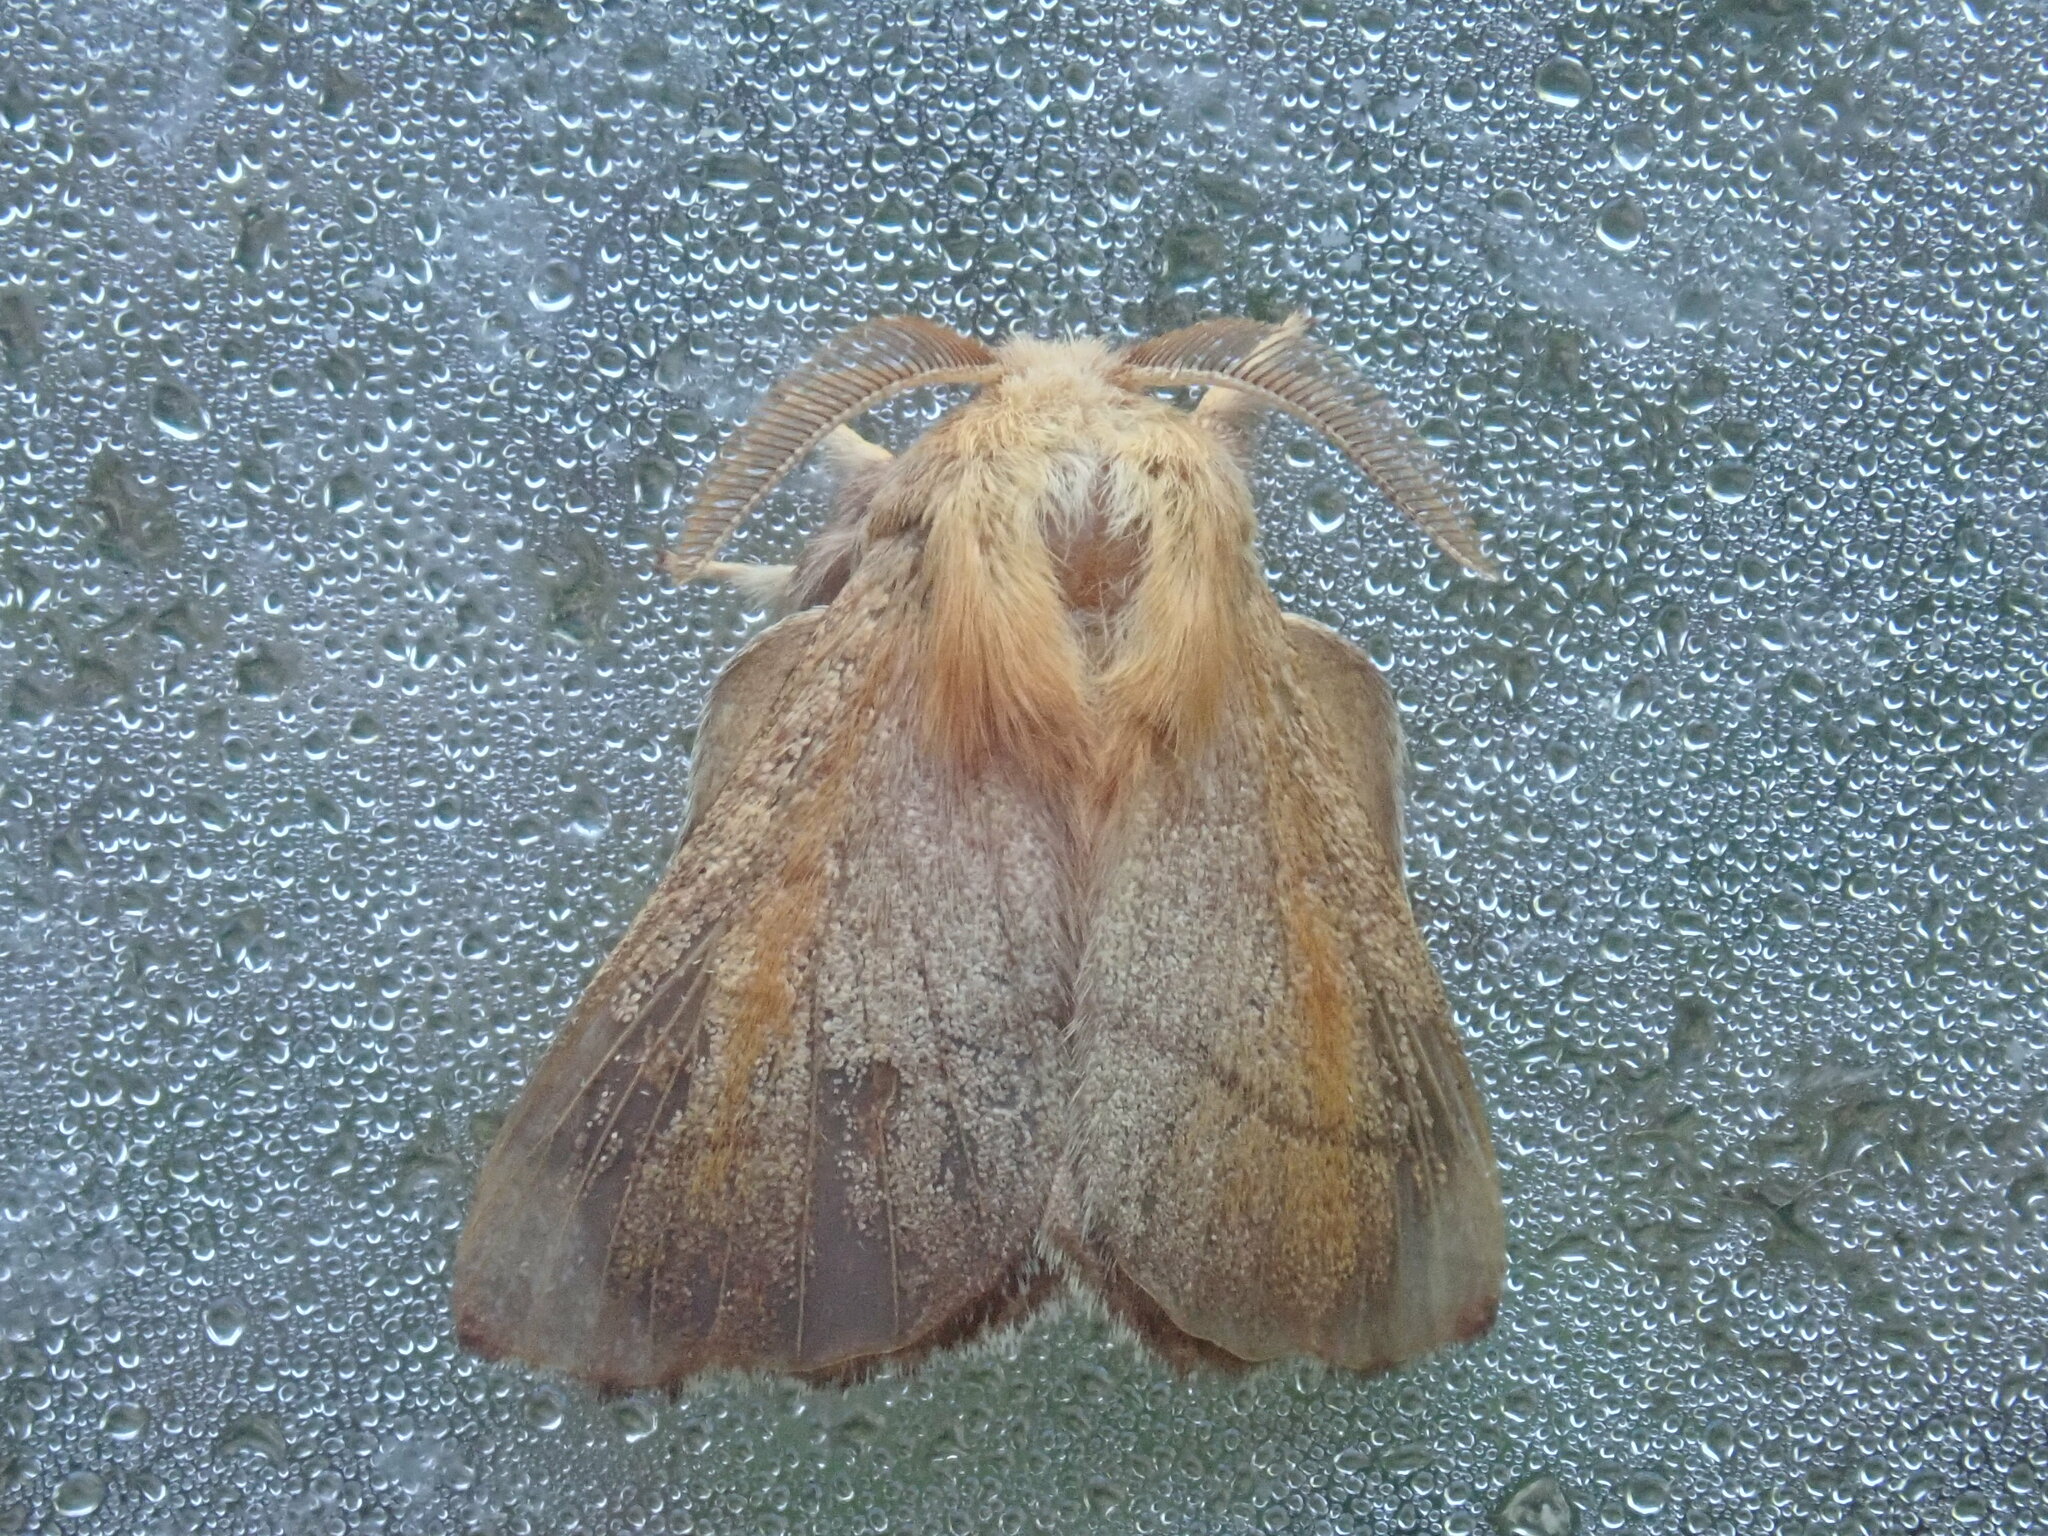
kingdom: Animalia
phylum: Arthropoda
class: Insecta
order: Lepidoptera
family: Lasiocampidae
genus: Malacosoma
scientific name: Malacosoma disstria
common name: Forest tent caterpillar
